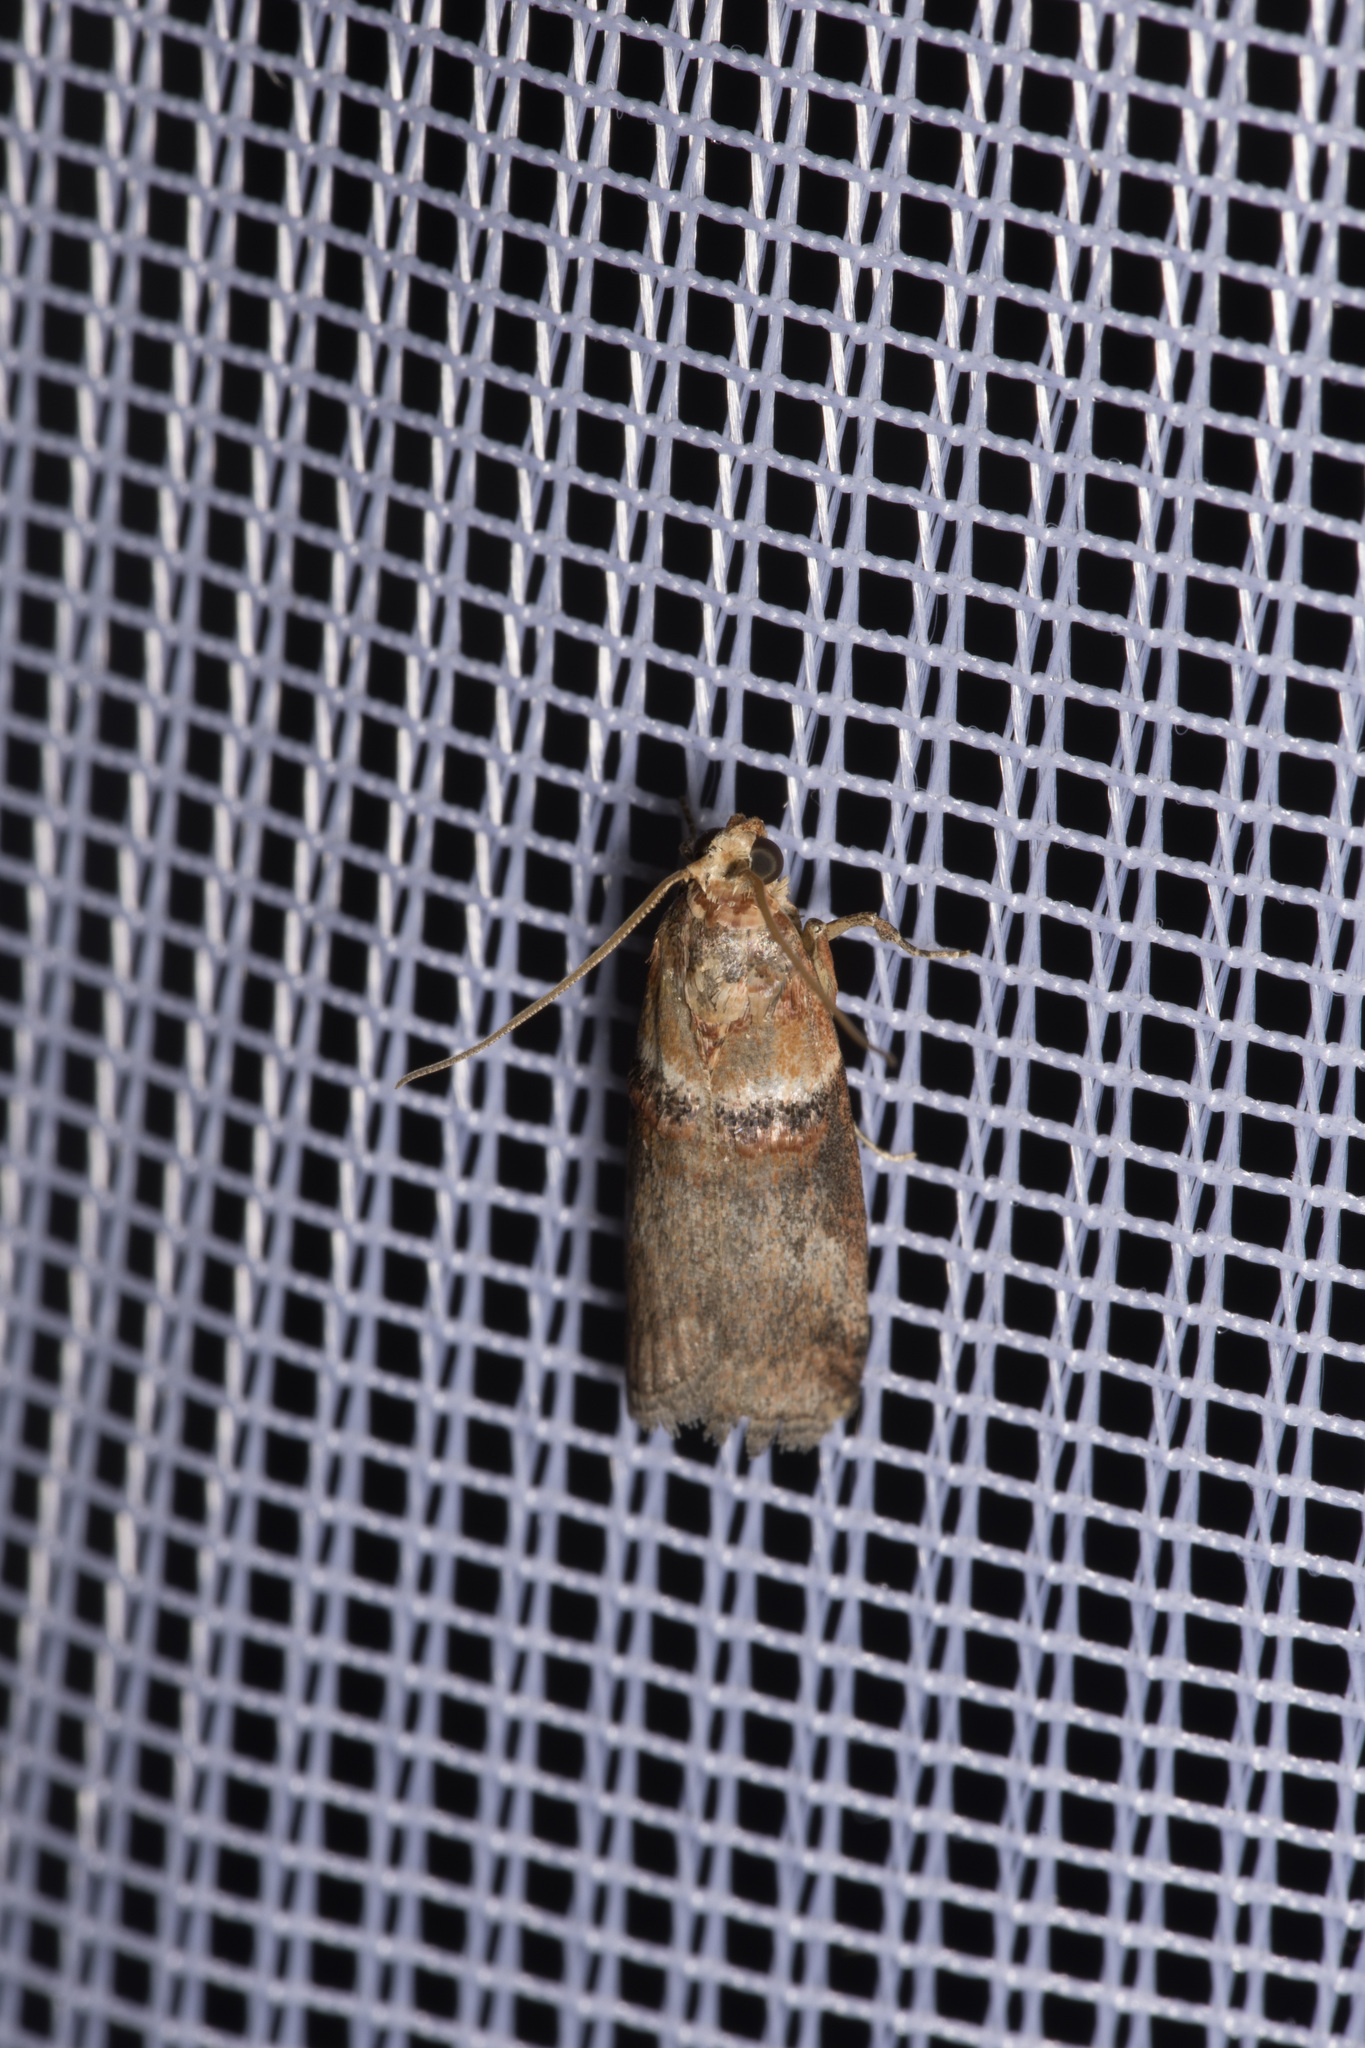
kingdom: Animalia
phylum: Arthropoda
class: Insecta
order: Lepidoptera
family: Pyralidae
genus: Acrobasis
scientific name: Acrobasis tumidana
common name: Scarce oak knot-horn
